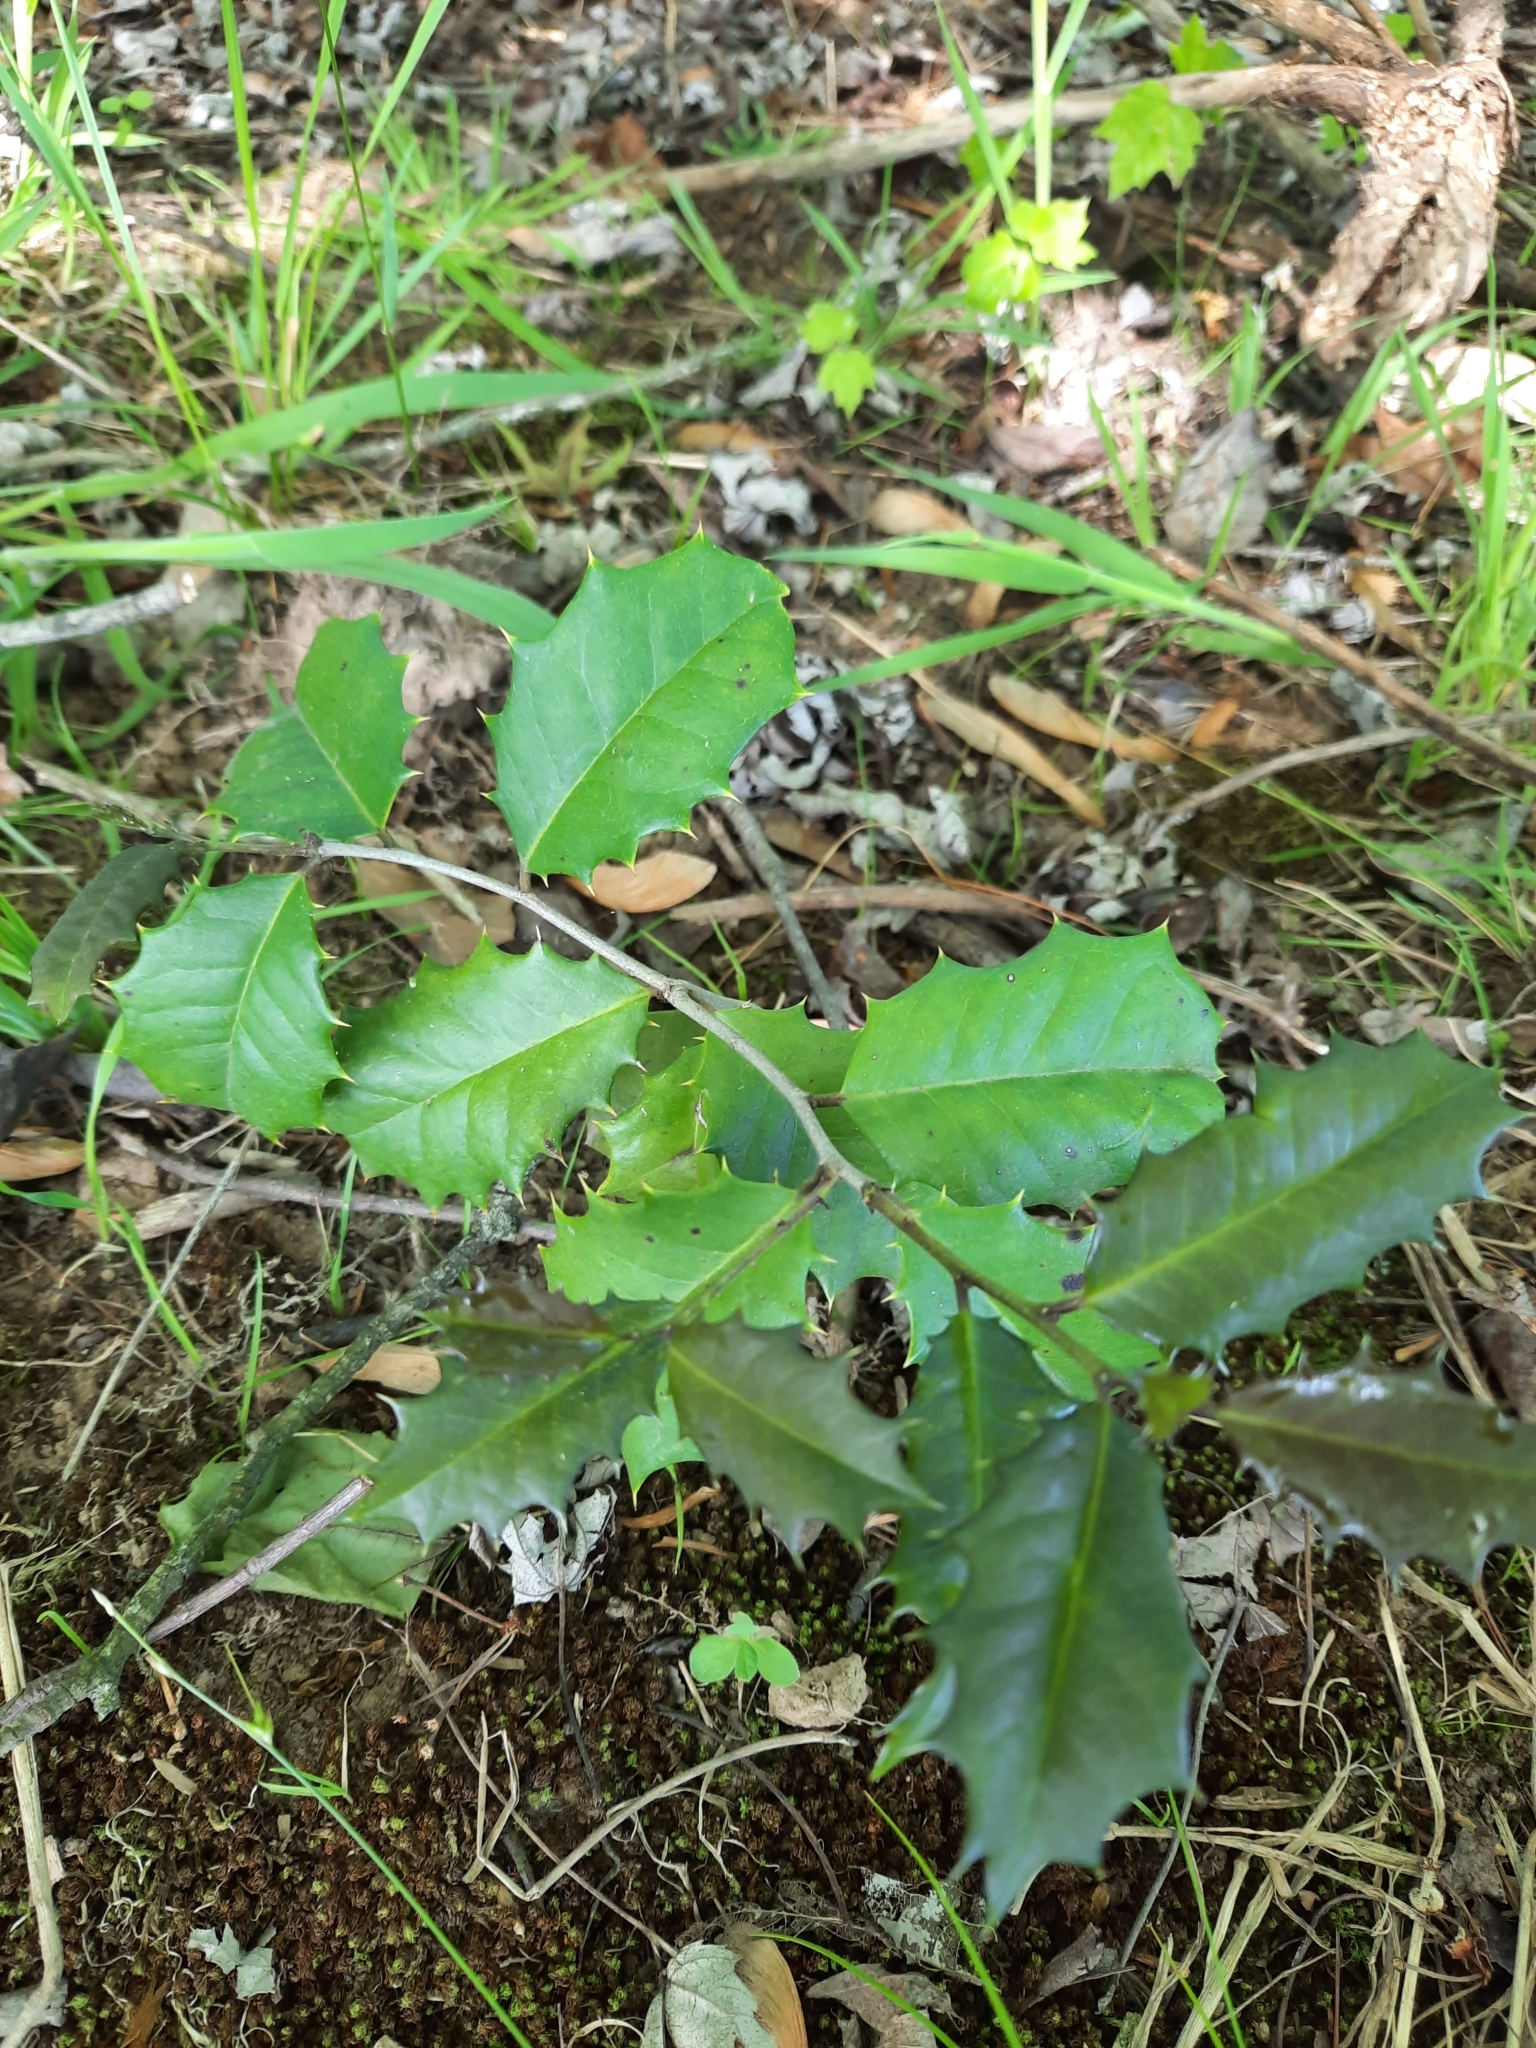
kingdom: Plantae
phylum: Tracheophyta
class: Magnoliopsida
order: Aquifoliales
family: Aquifoliaceae
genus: Ilex
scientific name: Ilex opaca
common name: American holly
